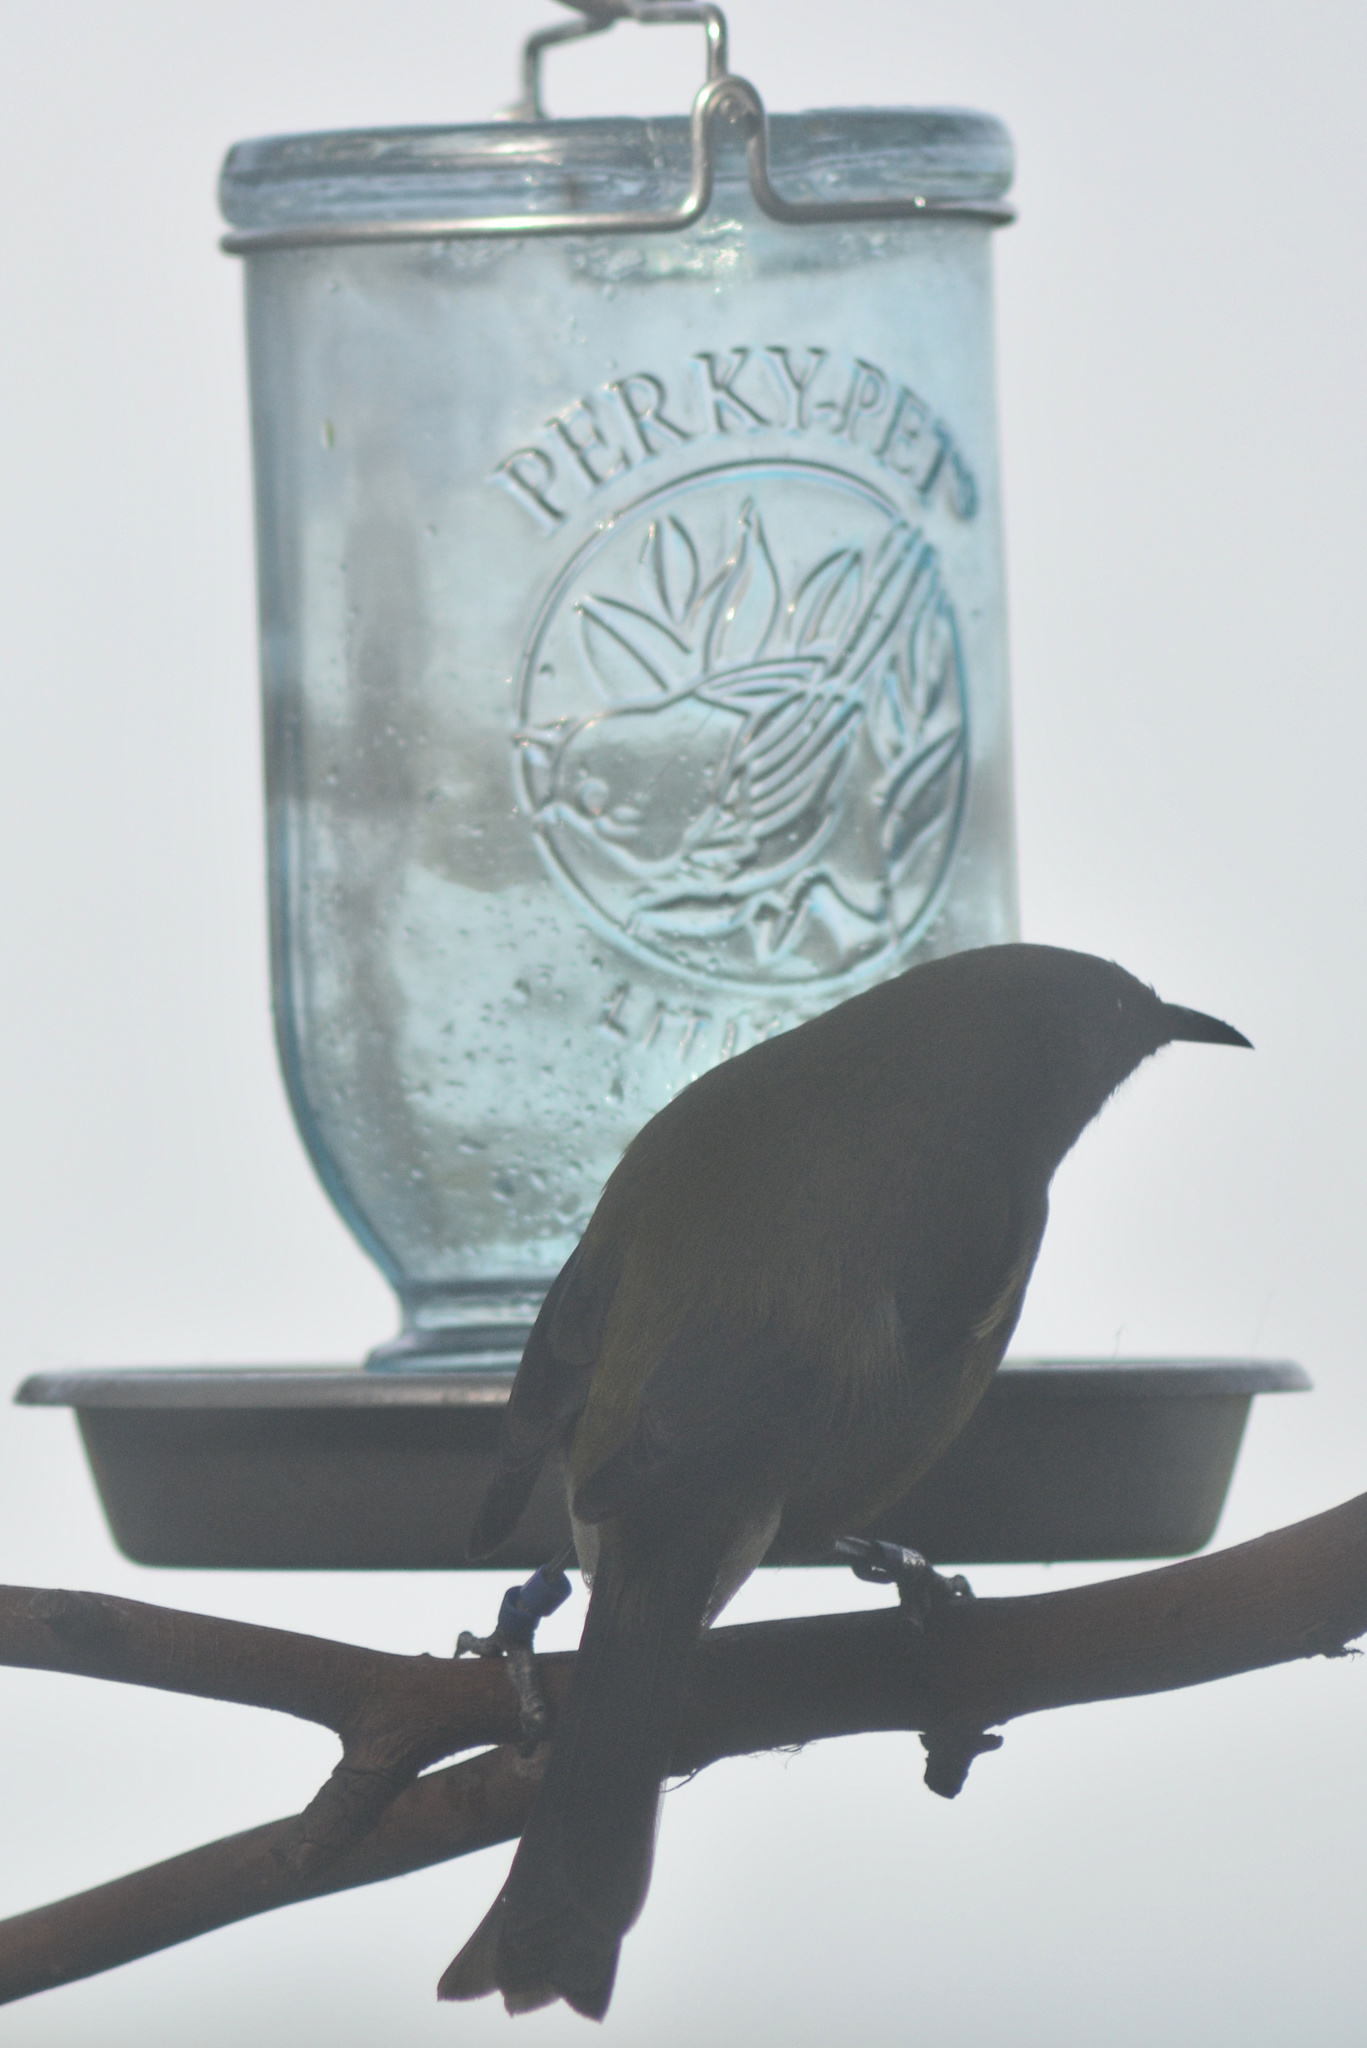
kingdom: Animalia
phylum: Chordata
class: Aves
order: Passeriformes
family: Meliphagidae
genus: Anthornis
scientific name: Anthornis melanura
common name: New zealand bellbird
